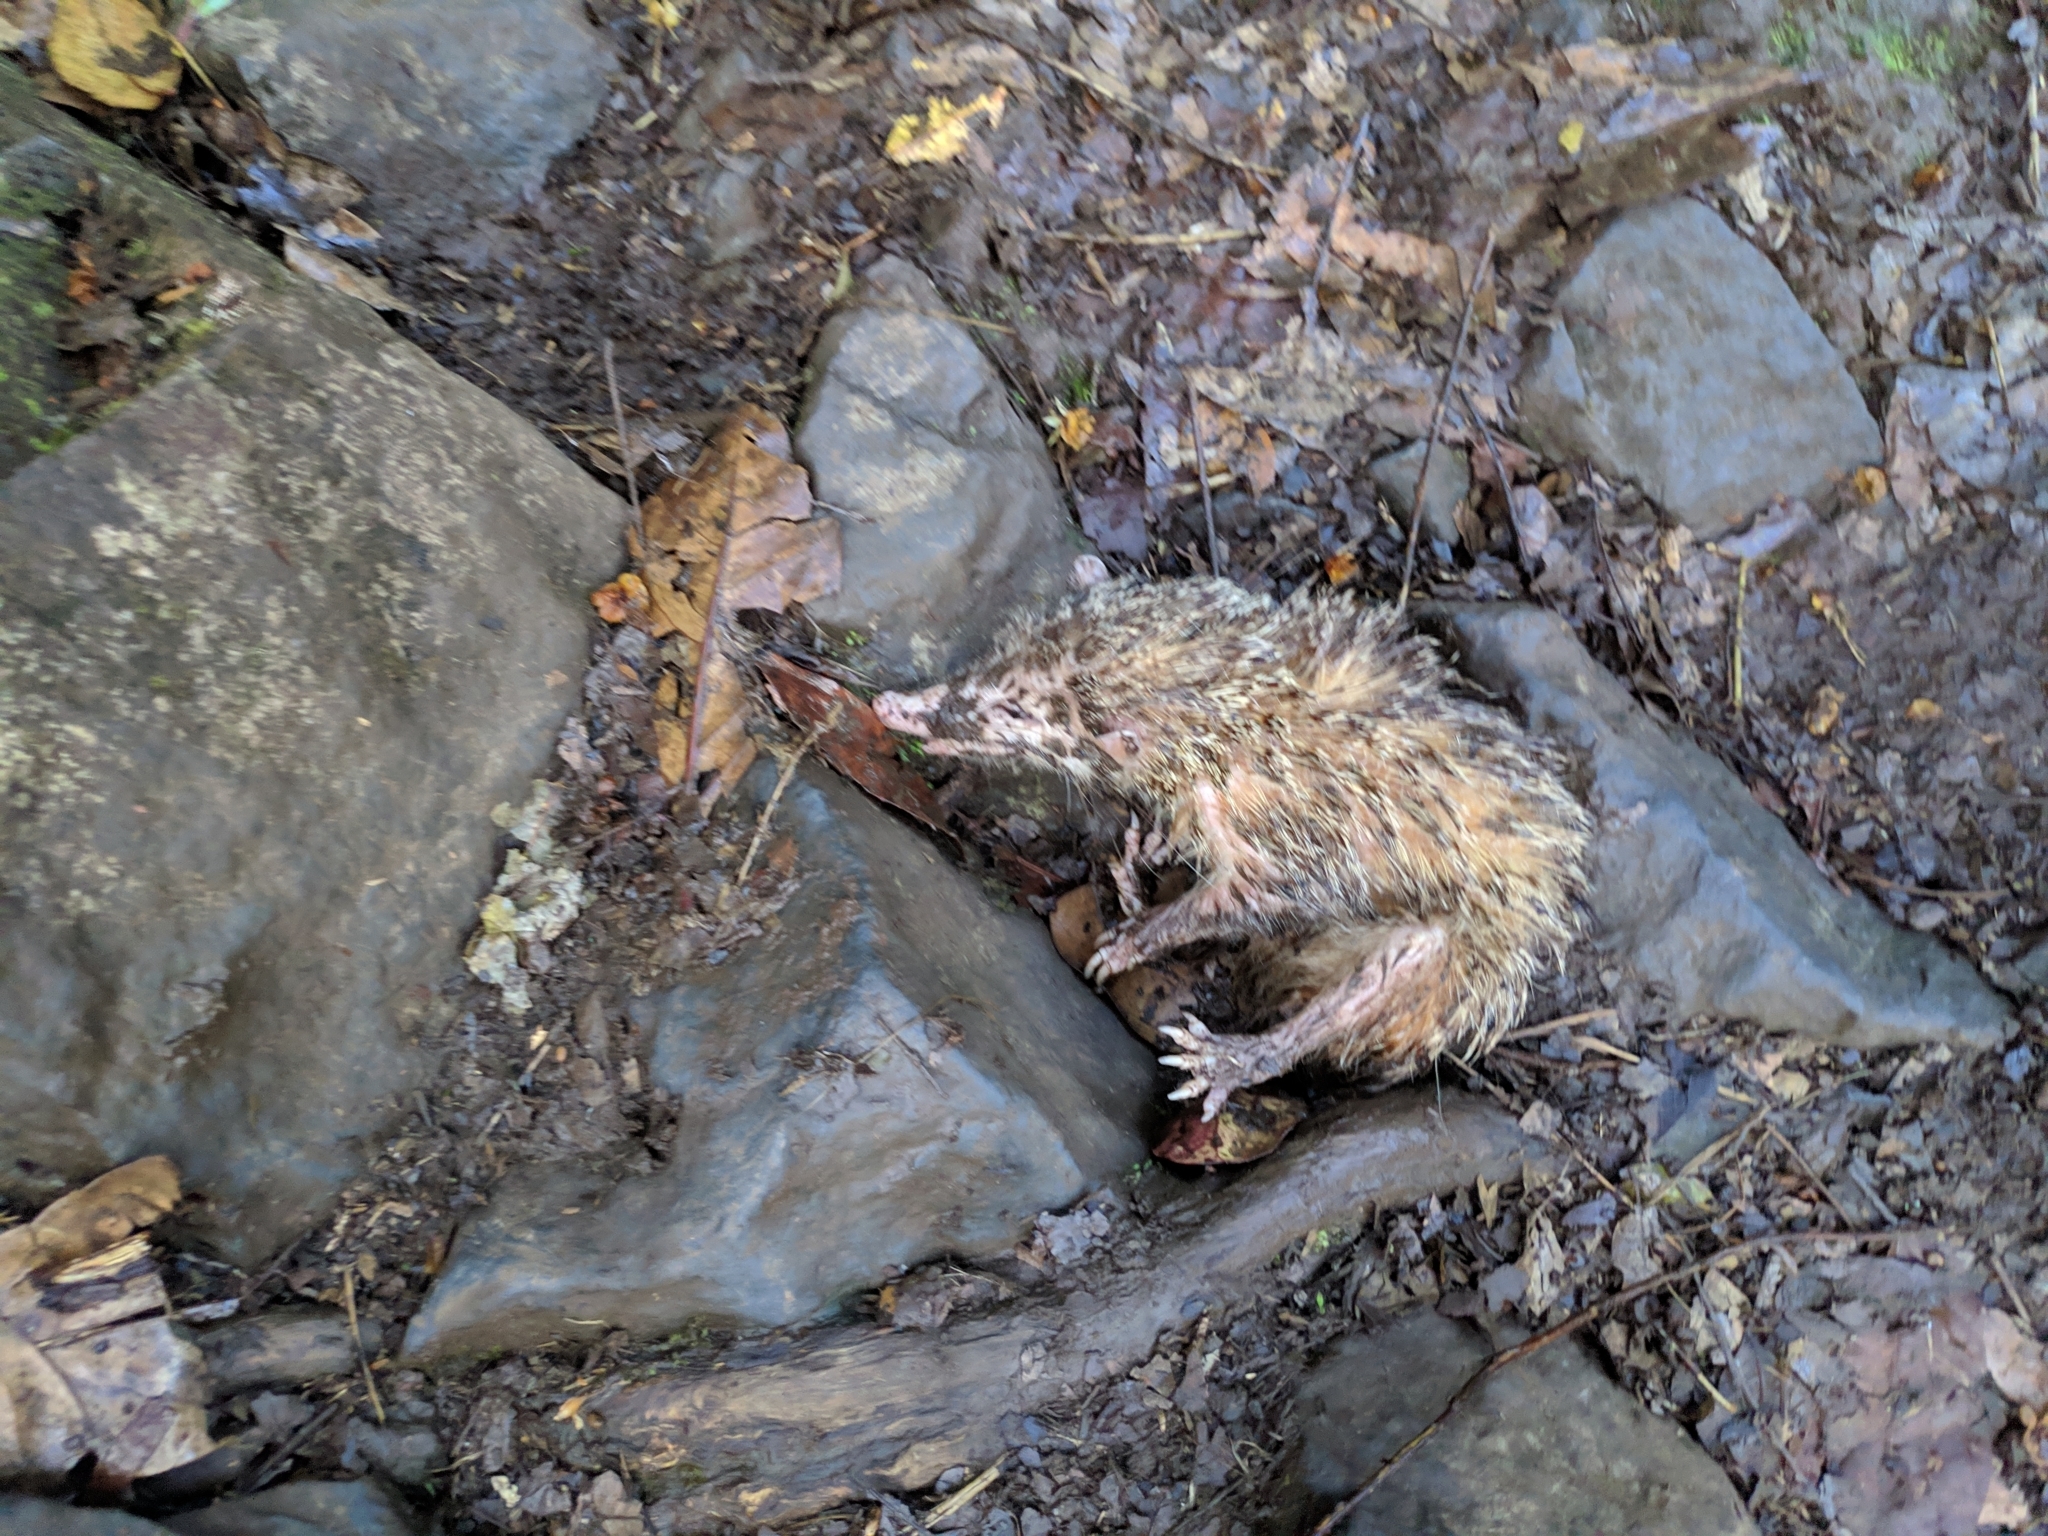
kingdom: Animalia
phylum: Chordata
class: Mammalia
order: Afrosoricida
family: Tenrecidae
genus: Tenrec
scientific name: Tenrec ecaudatus
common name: Common tenrec
